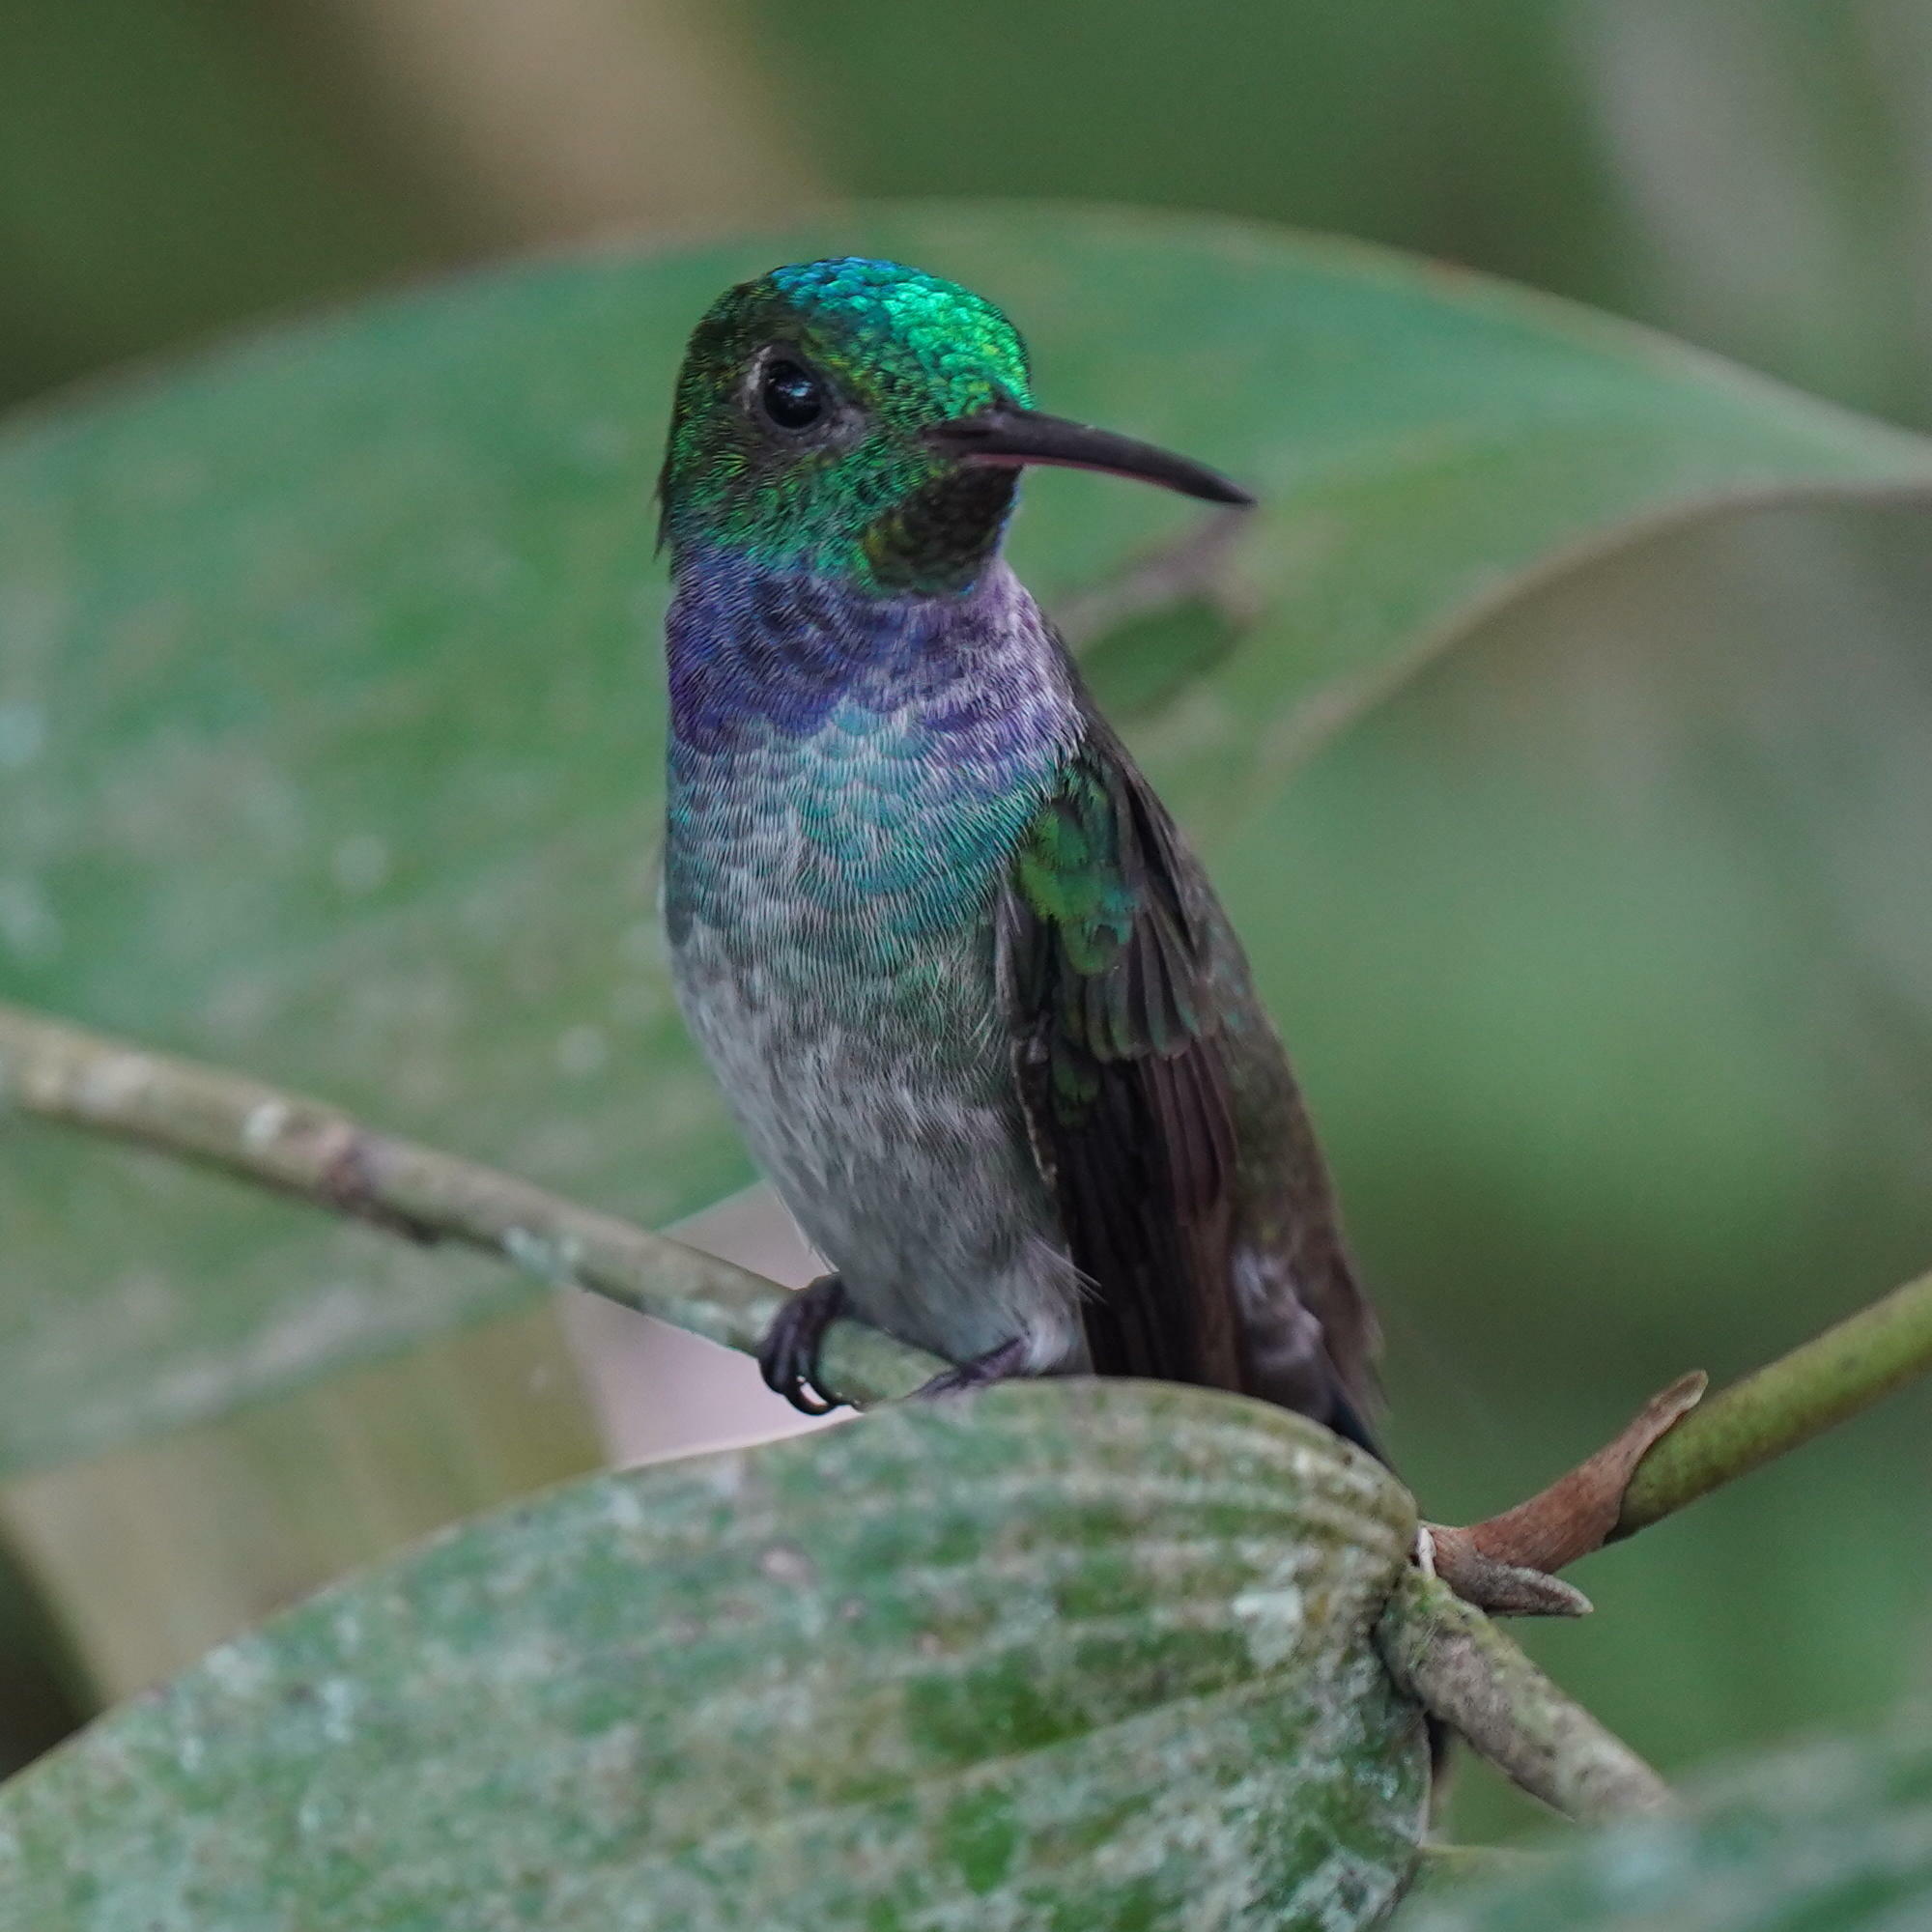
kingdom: Animalia
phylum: Chordata
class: Aves
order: Apodiformes
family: Trochilidae
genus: Polyerata
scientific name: Polyerata amabilis
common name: Blue-chested hummingbird
